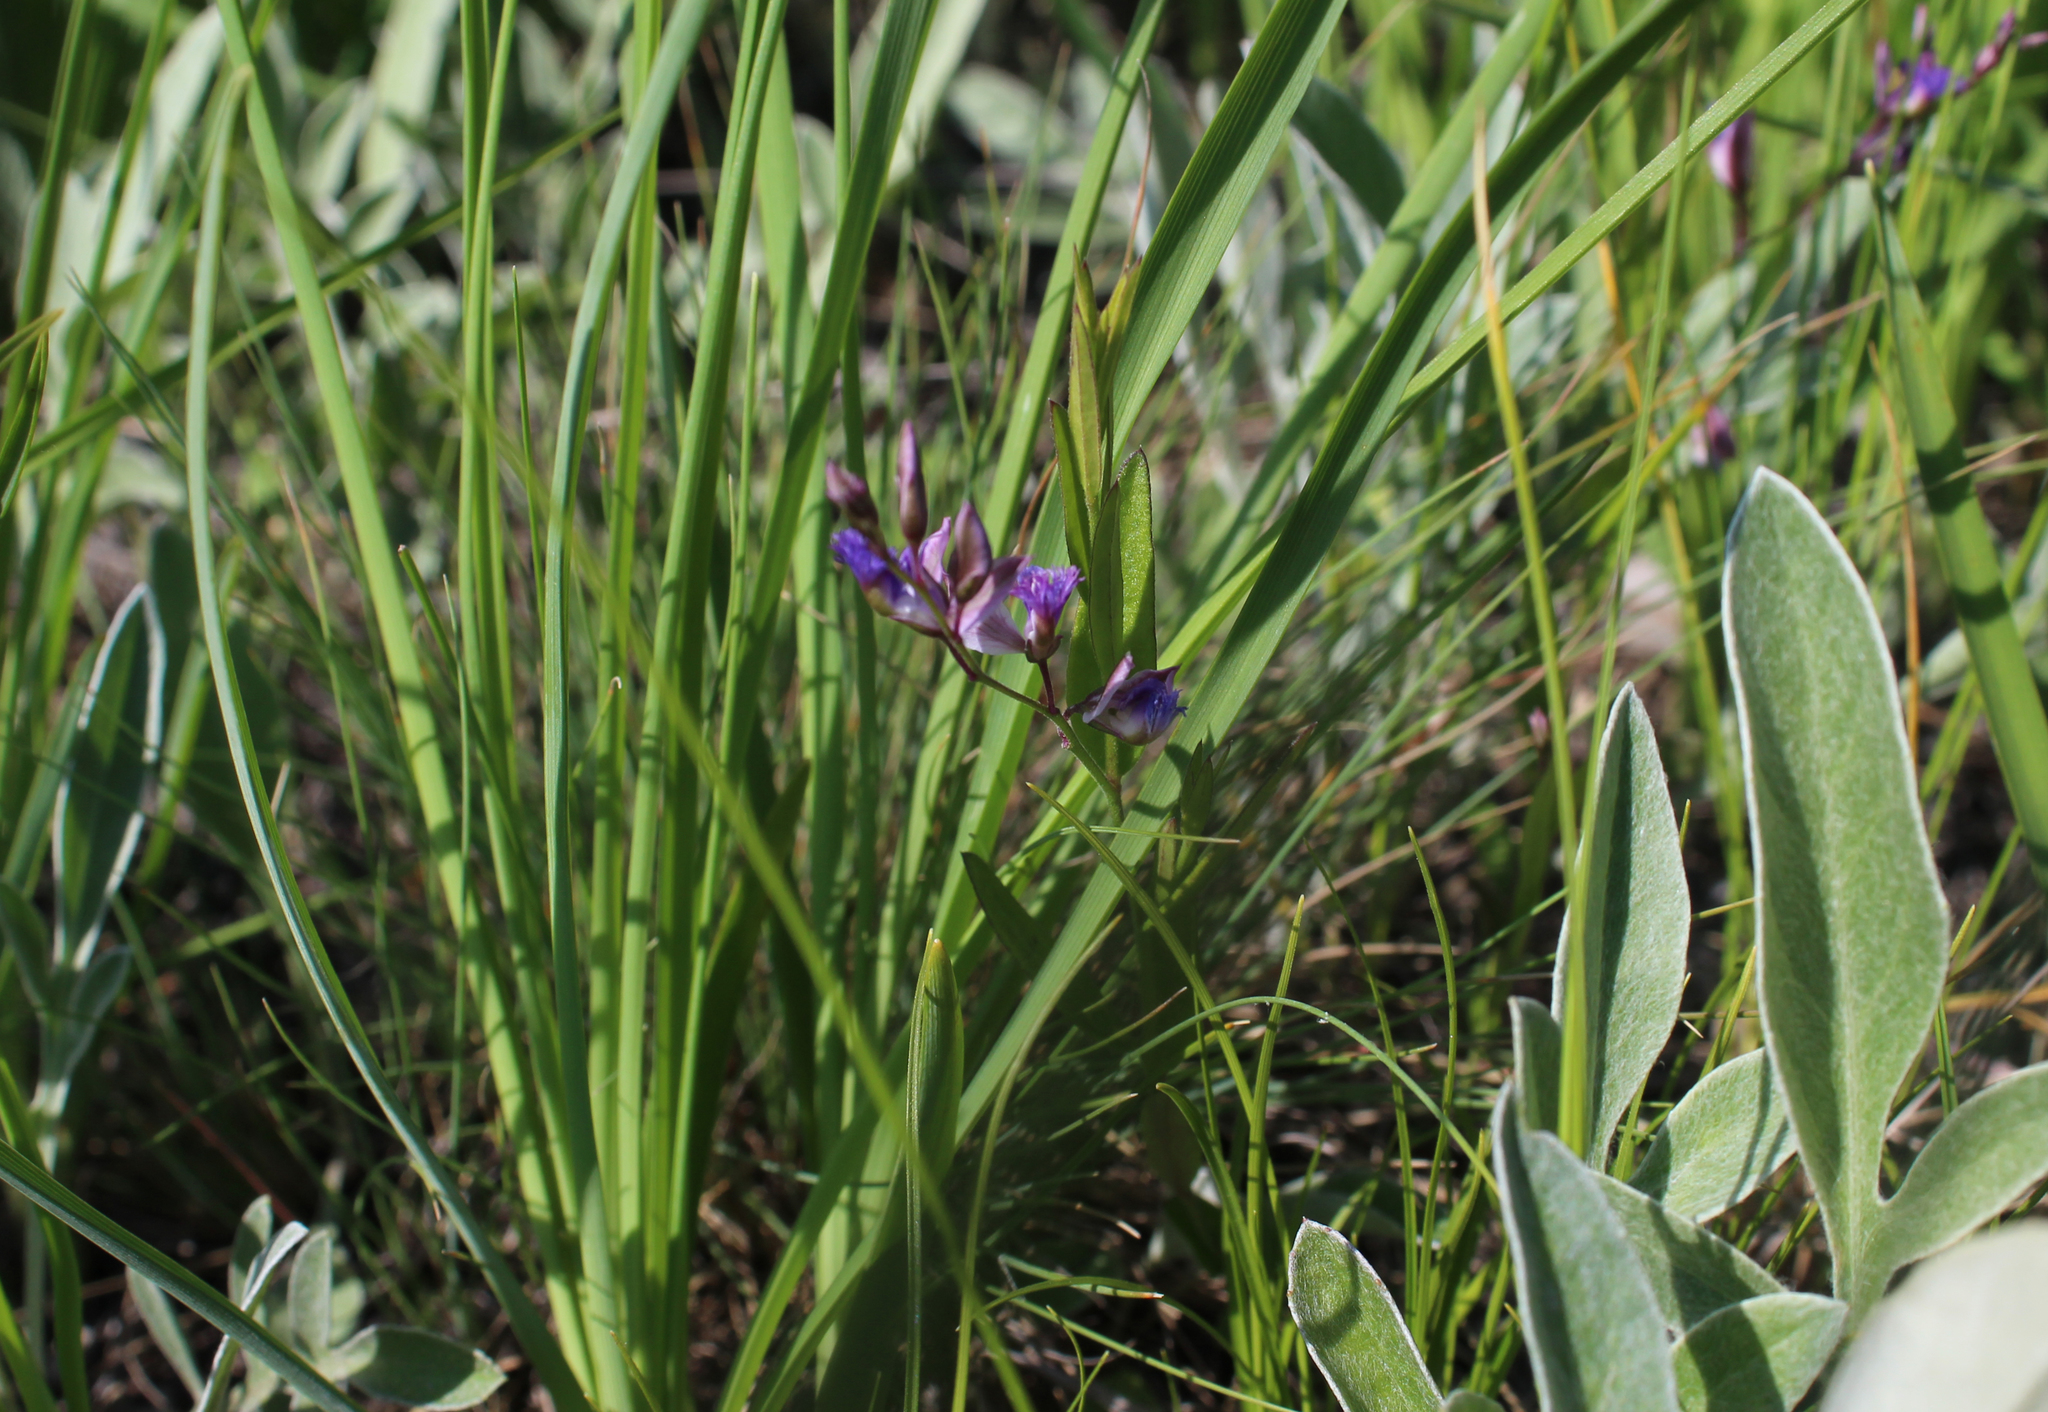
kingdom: Plantae
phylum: Tracheophyta
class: Magnoliopsida
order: Fabales
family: Polygalaceae
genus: Polygala
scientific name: Polygala sibirica
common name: Siberian polygala
